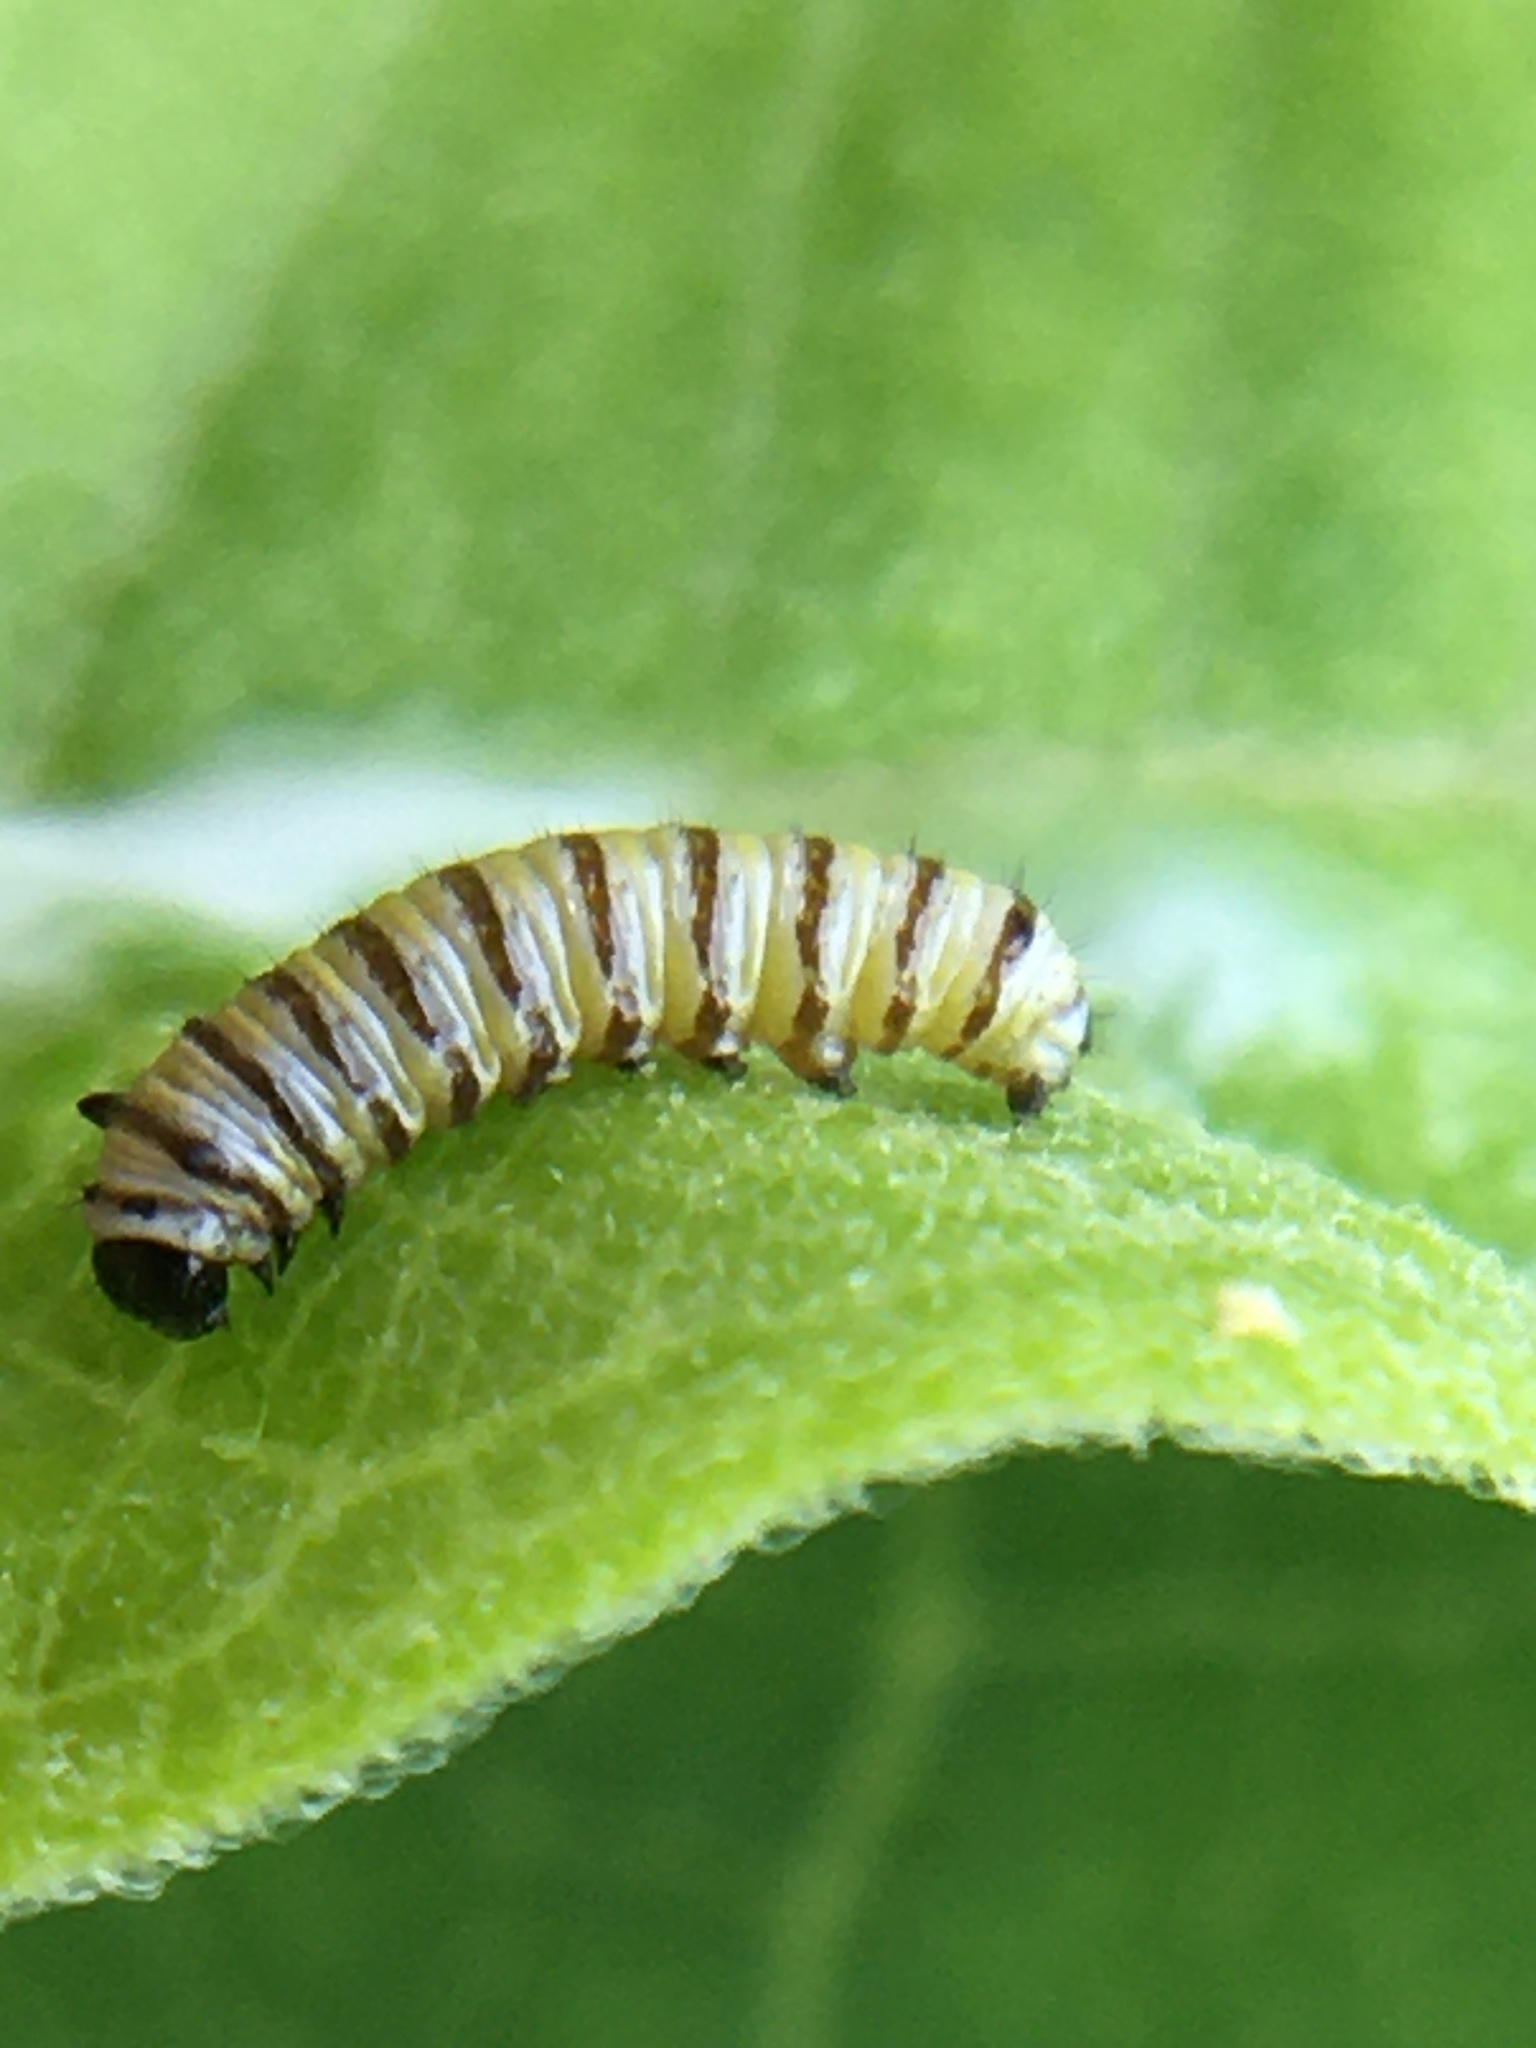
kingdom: Animalia
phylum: Arthropoda
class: Insecta
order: Lepidoptera
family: Nymphalidae
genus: Danaus
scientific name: Danaus plexippus
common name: Monarch
